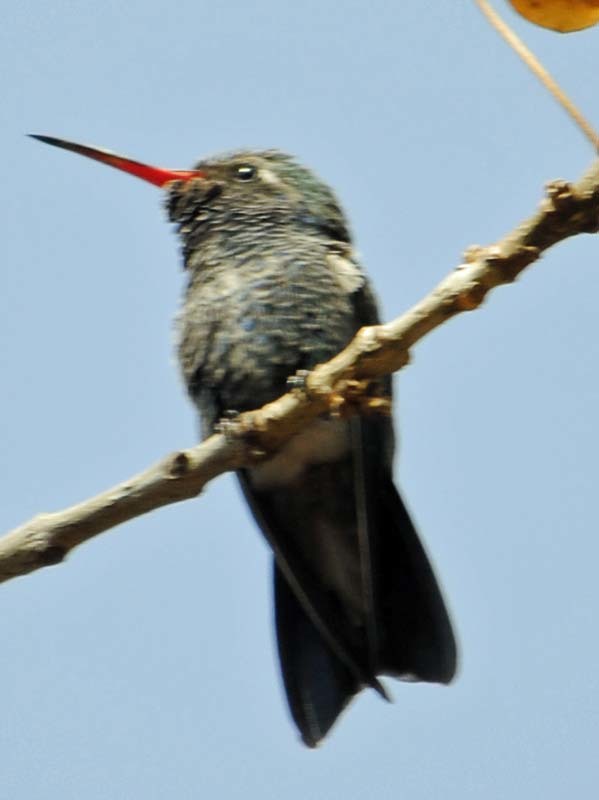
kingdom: Animalia
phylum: Chordata
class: Aves
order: Apodiformes
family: Trochilidae
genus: Cynanthus
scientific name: Cynanthus latirostris
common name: Broad-billed hummingbird
